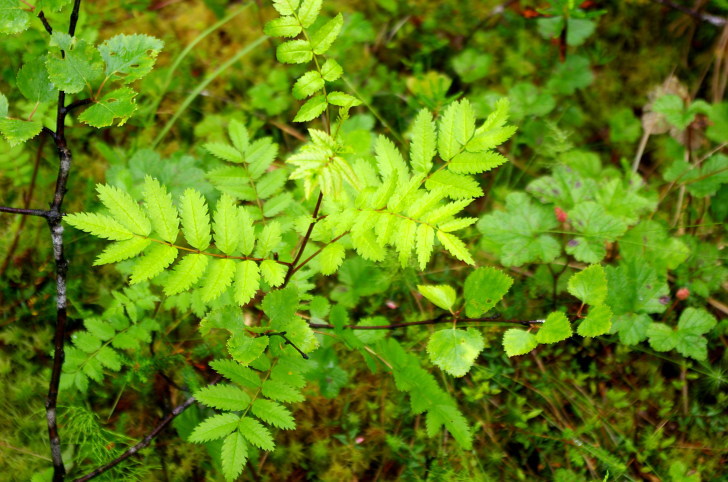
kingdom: Plantae
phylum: Tracheophyta
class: Magnoliopsida
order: Rosales
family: Rosaceae
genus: Sorbus
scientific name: Sorbus aucuparia
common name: Rowan
